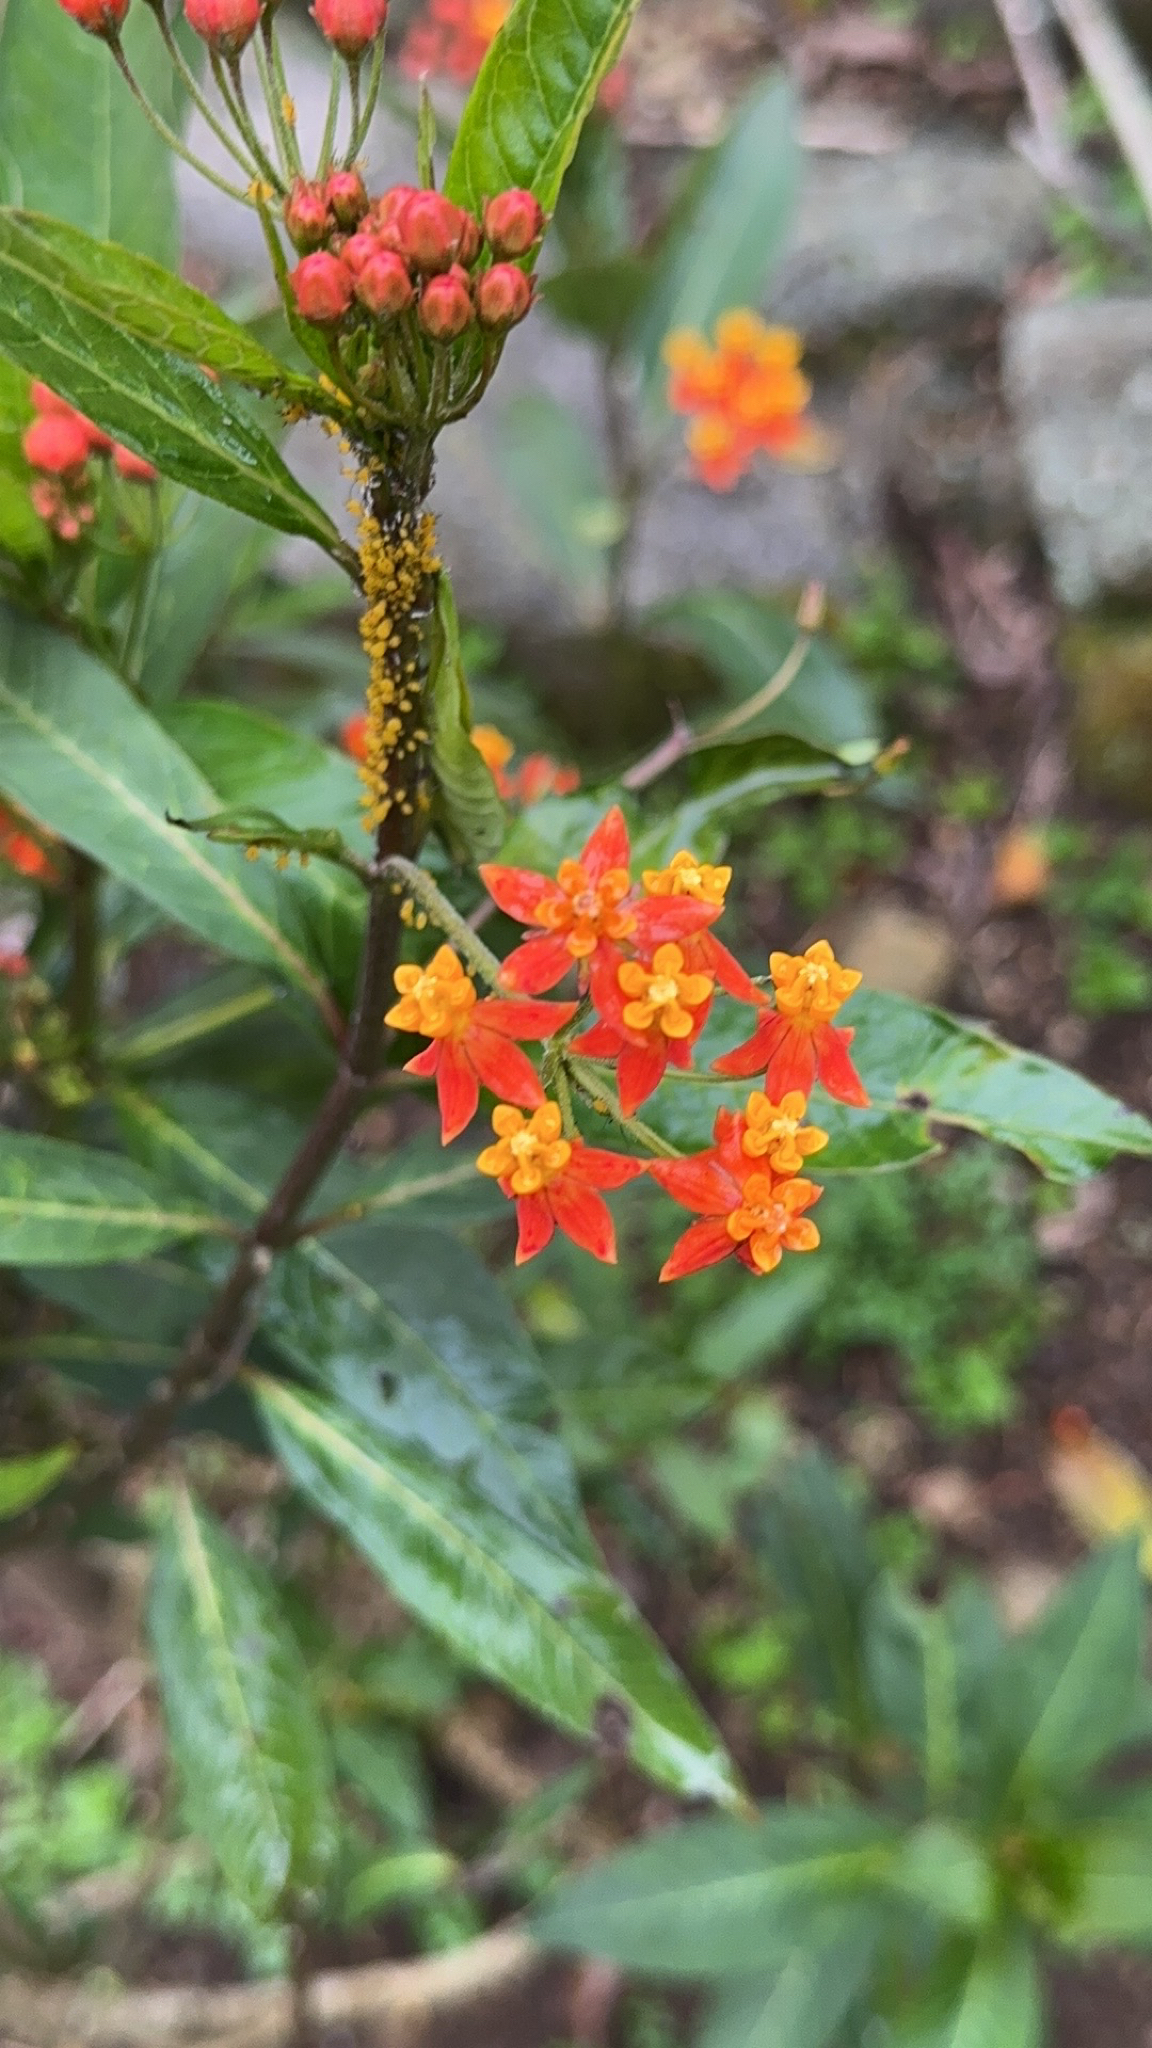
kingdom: Plantae
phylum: Tracheophyta
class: Magnoliopsida
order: Gentianales
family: Apocynaceae
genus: Asclepias
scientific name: Asclepias curassavica
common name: Bloodflower
